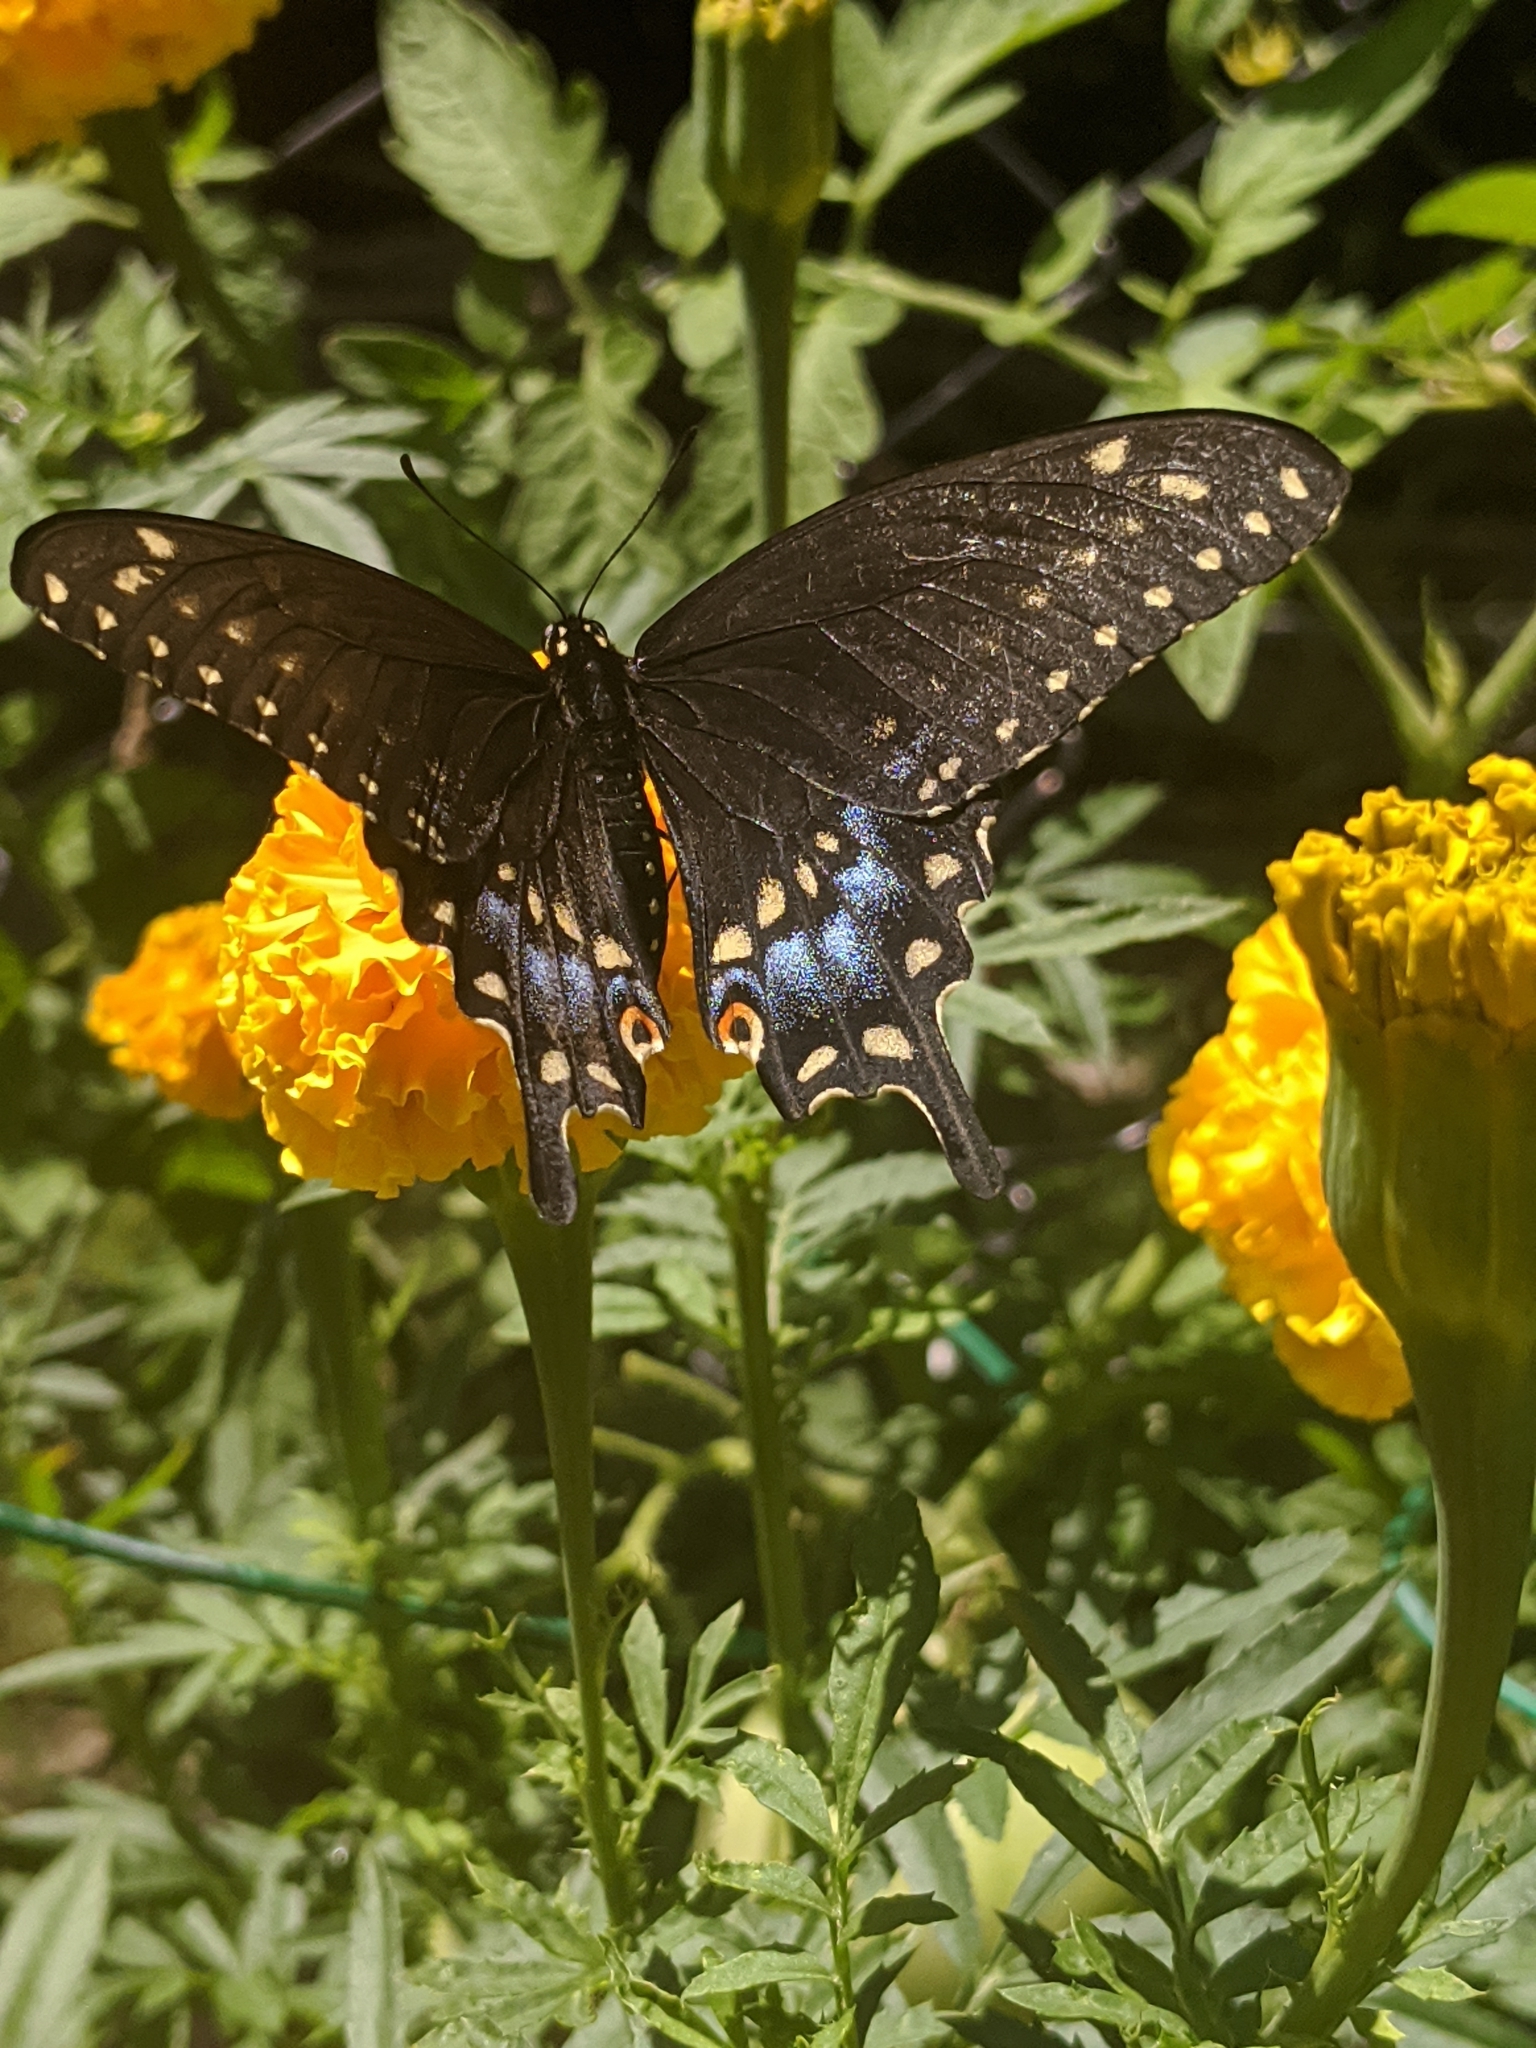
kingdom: Animalia
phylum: Arthropoda
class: Insecta
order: Lepidoptera
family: Papilionidae
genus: Papilio
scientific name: Papilio polyxenes
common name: Black swallowtail
